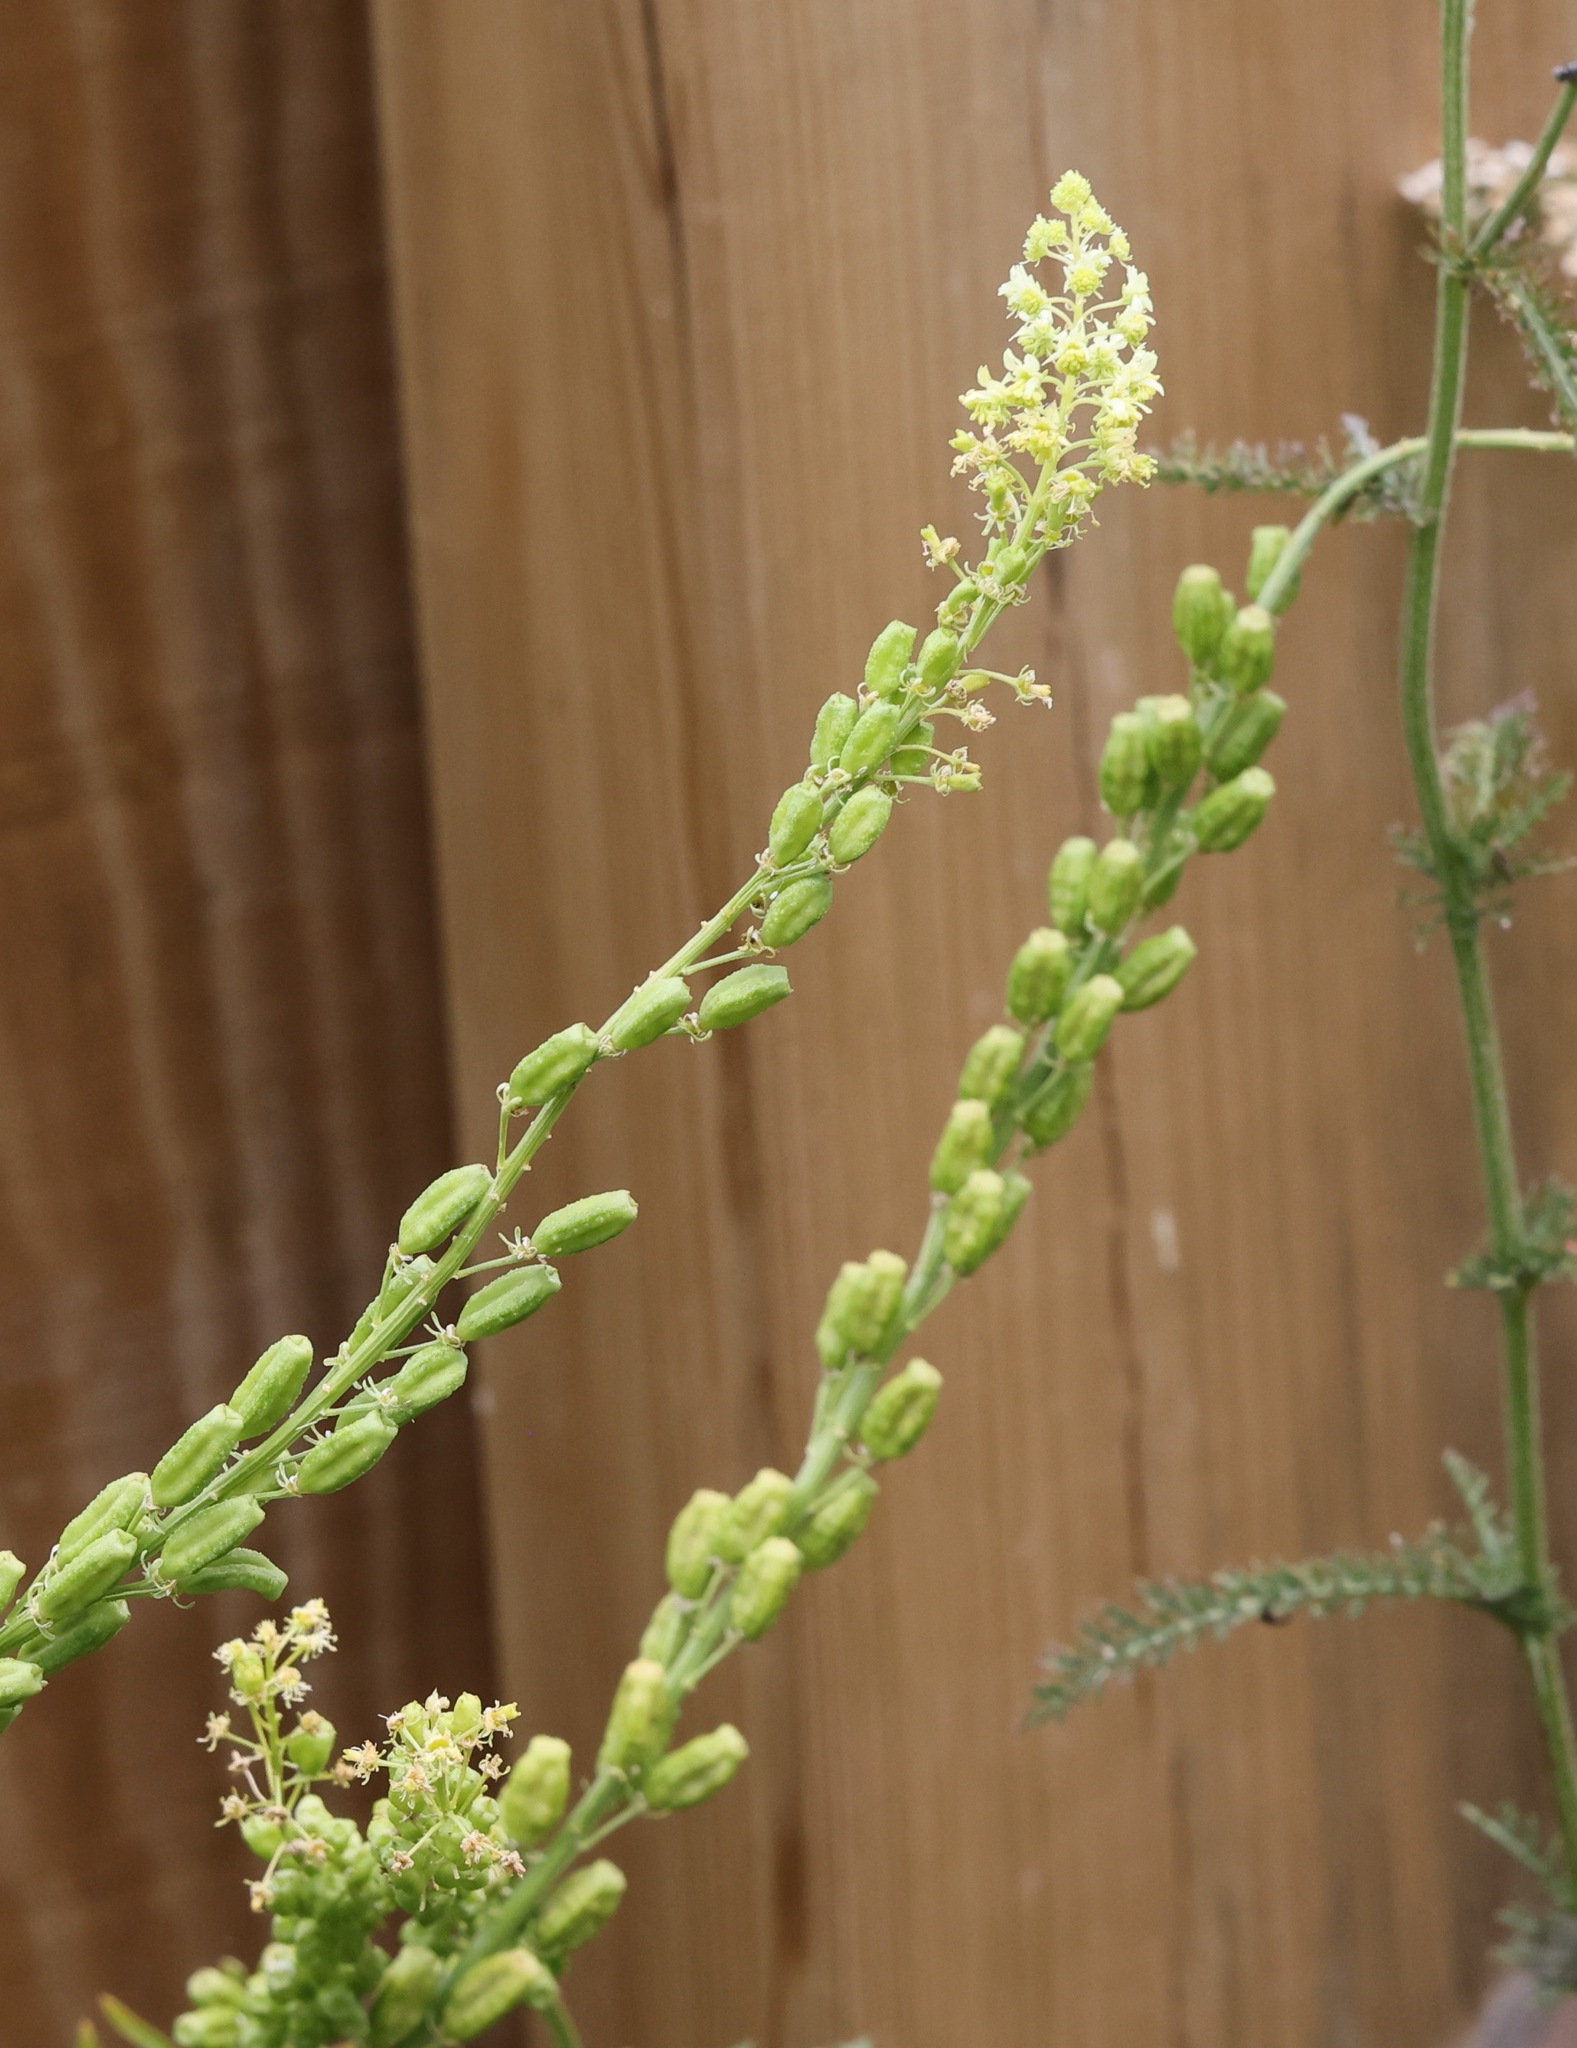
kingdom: Plantae
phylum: Tracheophyta
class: Magnoliopsida
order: Brassicales
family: Resedaceae
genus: Reseda
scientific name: Reseda lutea
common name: Wild mignonette
